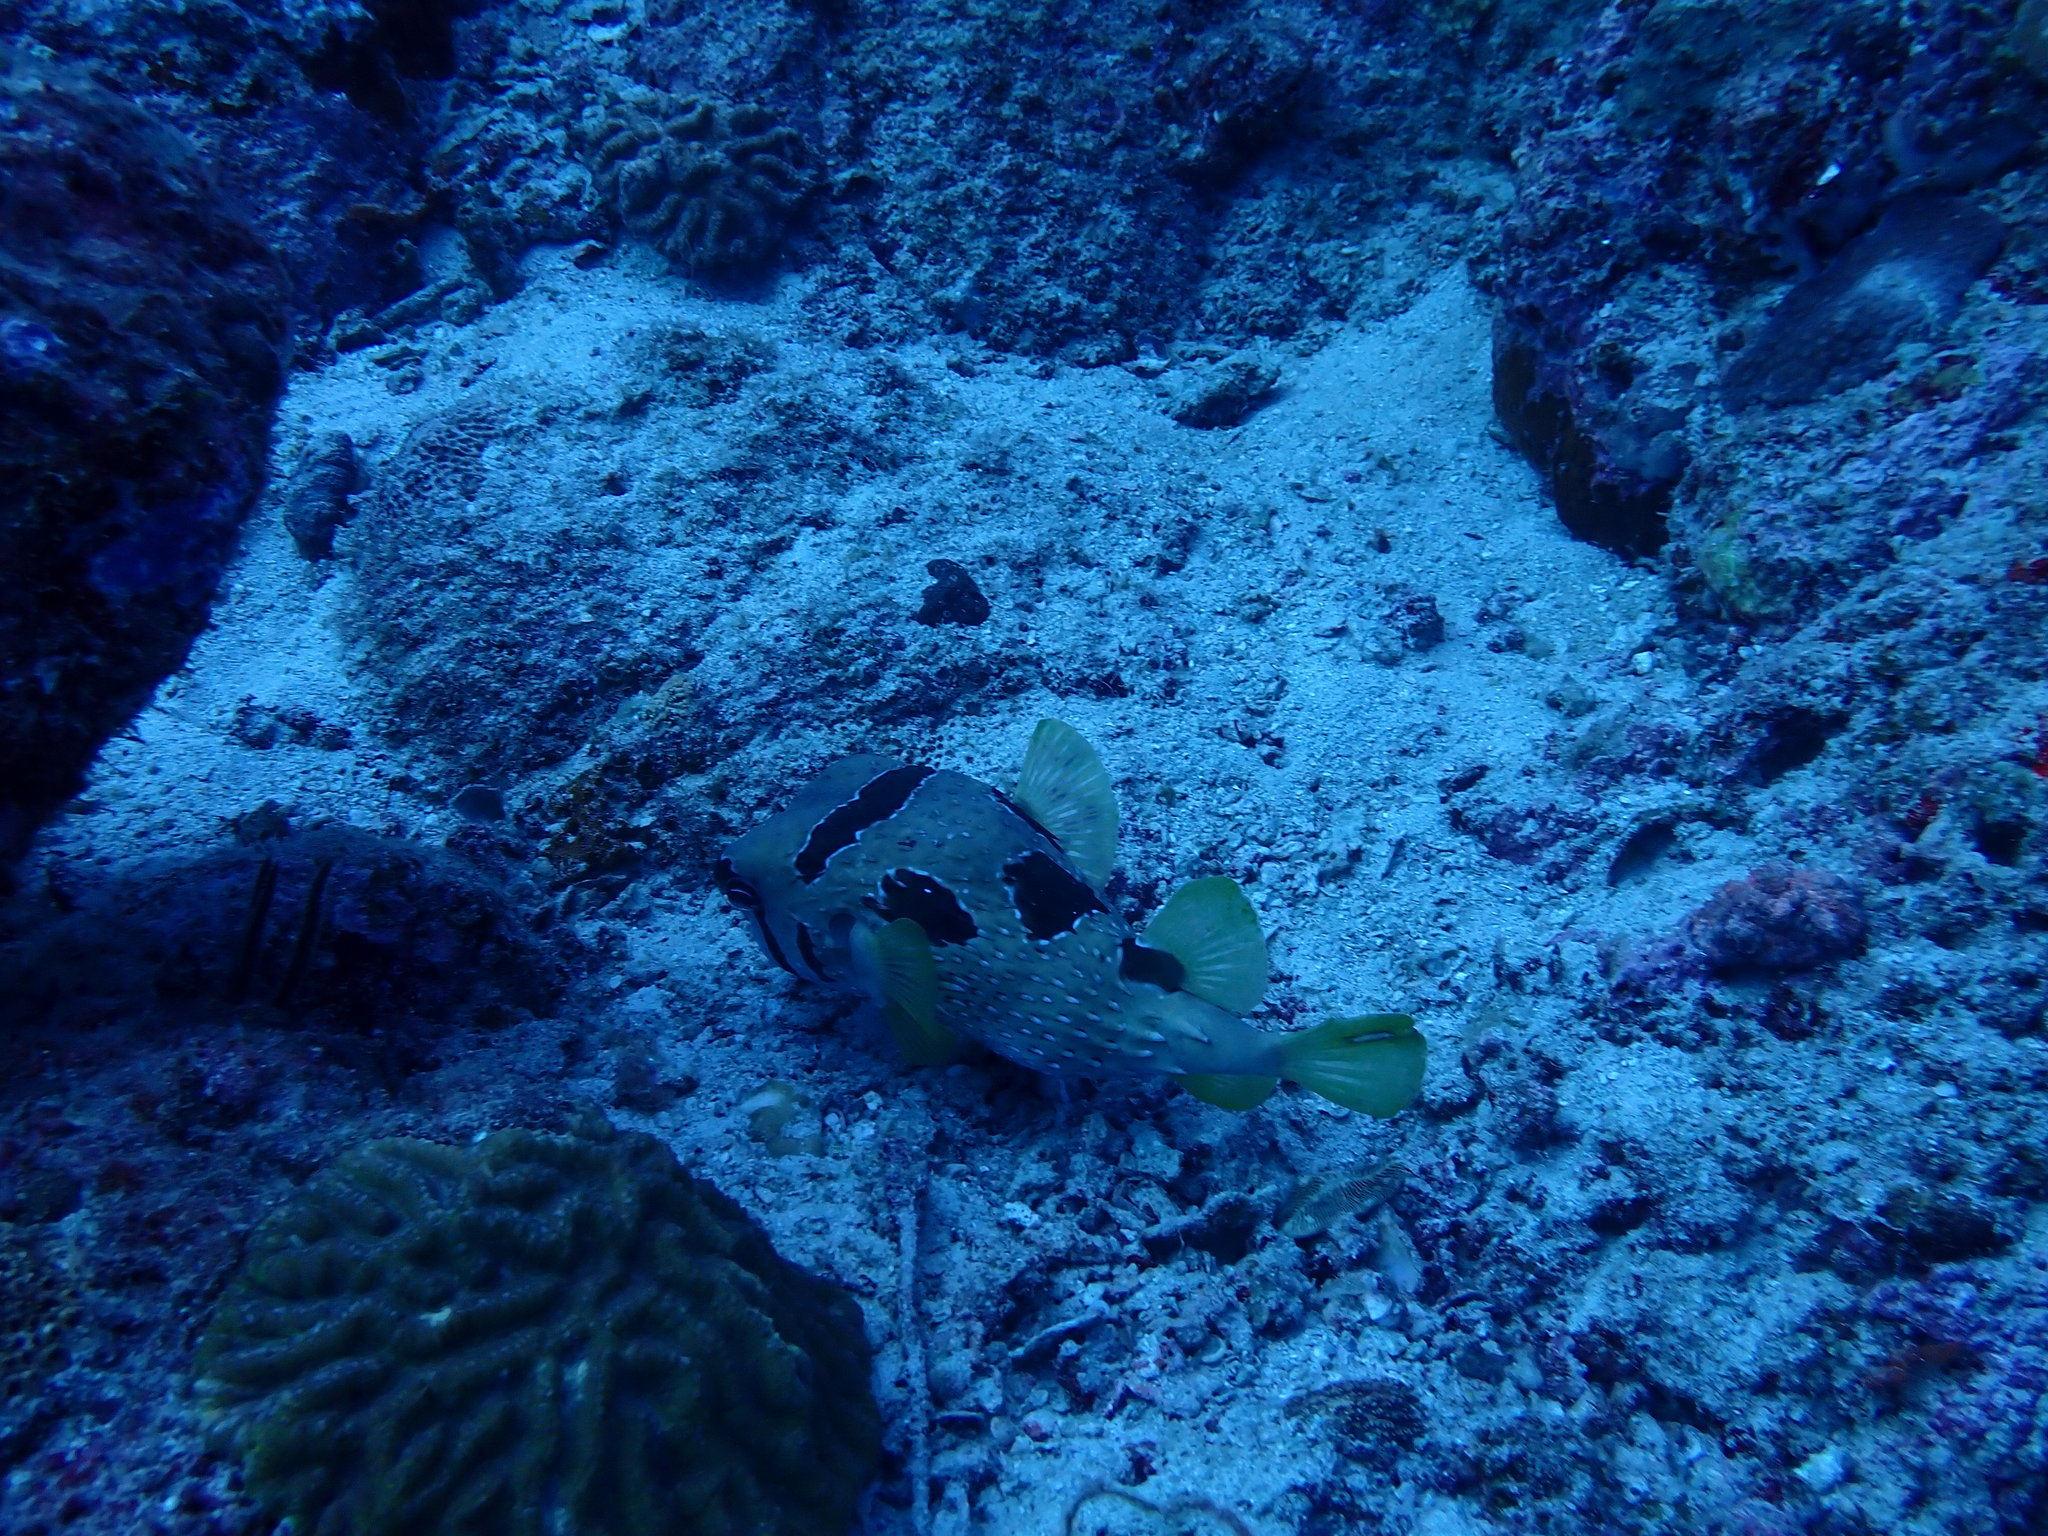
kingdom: Animalia
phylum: Chordata
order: Tetraodontiformes
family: Diodontidae
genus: Diodon
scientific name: Diodon liturosus
